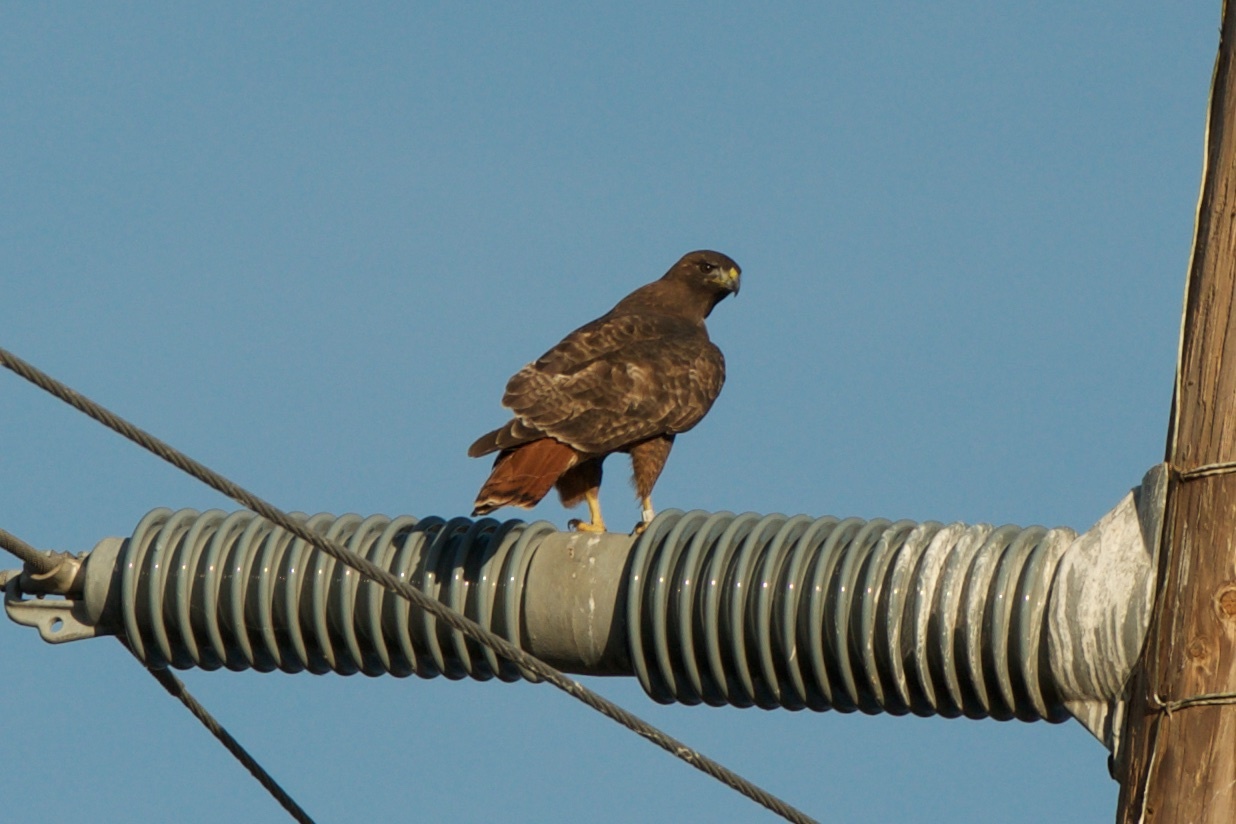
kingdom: Animalia
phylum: Chordata
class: Aves
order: Accipitriformes
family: Accipitridae
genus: Buteo
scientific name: Buteo jamaicensis
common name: Red-tailed hawk
